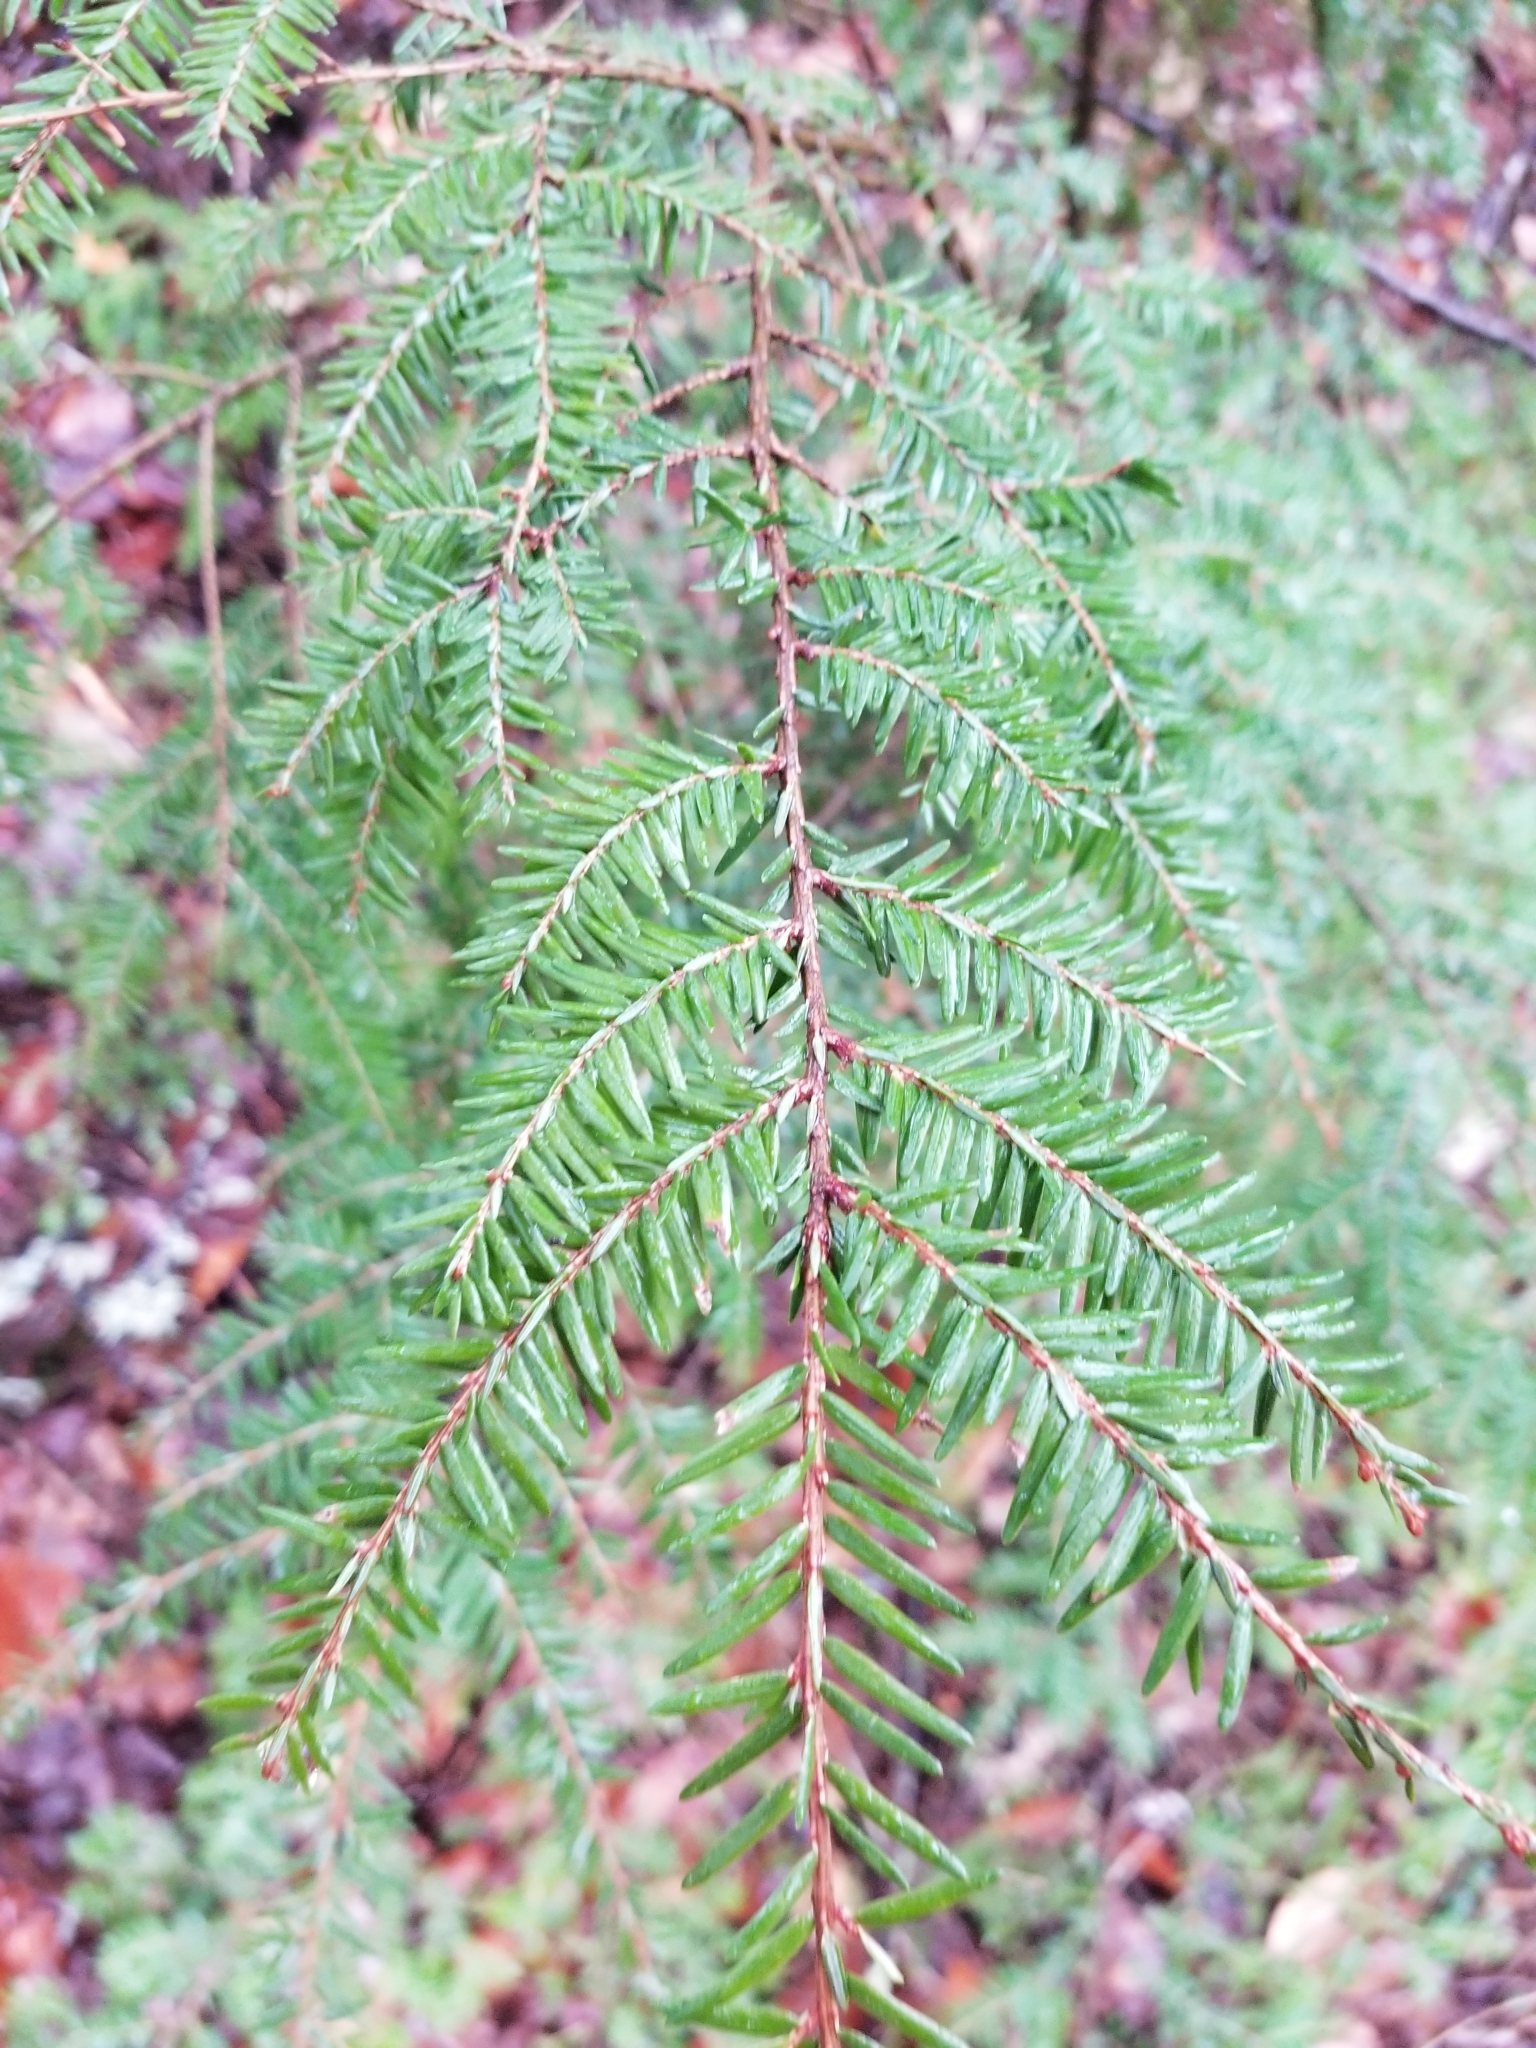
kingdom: Plantae
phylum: Tracheophyta
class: Pinopsida
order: Pinales
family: Pinaceae
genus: Tsuga
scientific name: Tsuga canadensis
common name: Eastern hemlock
